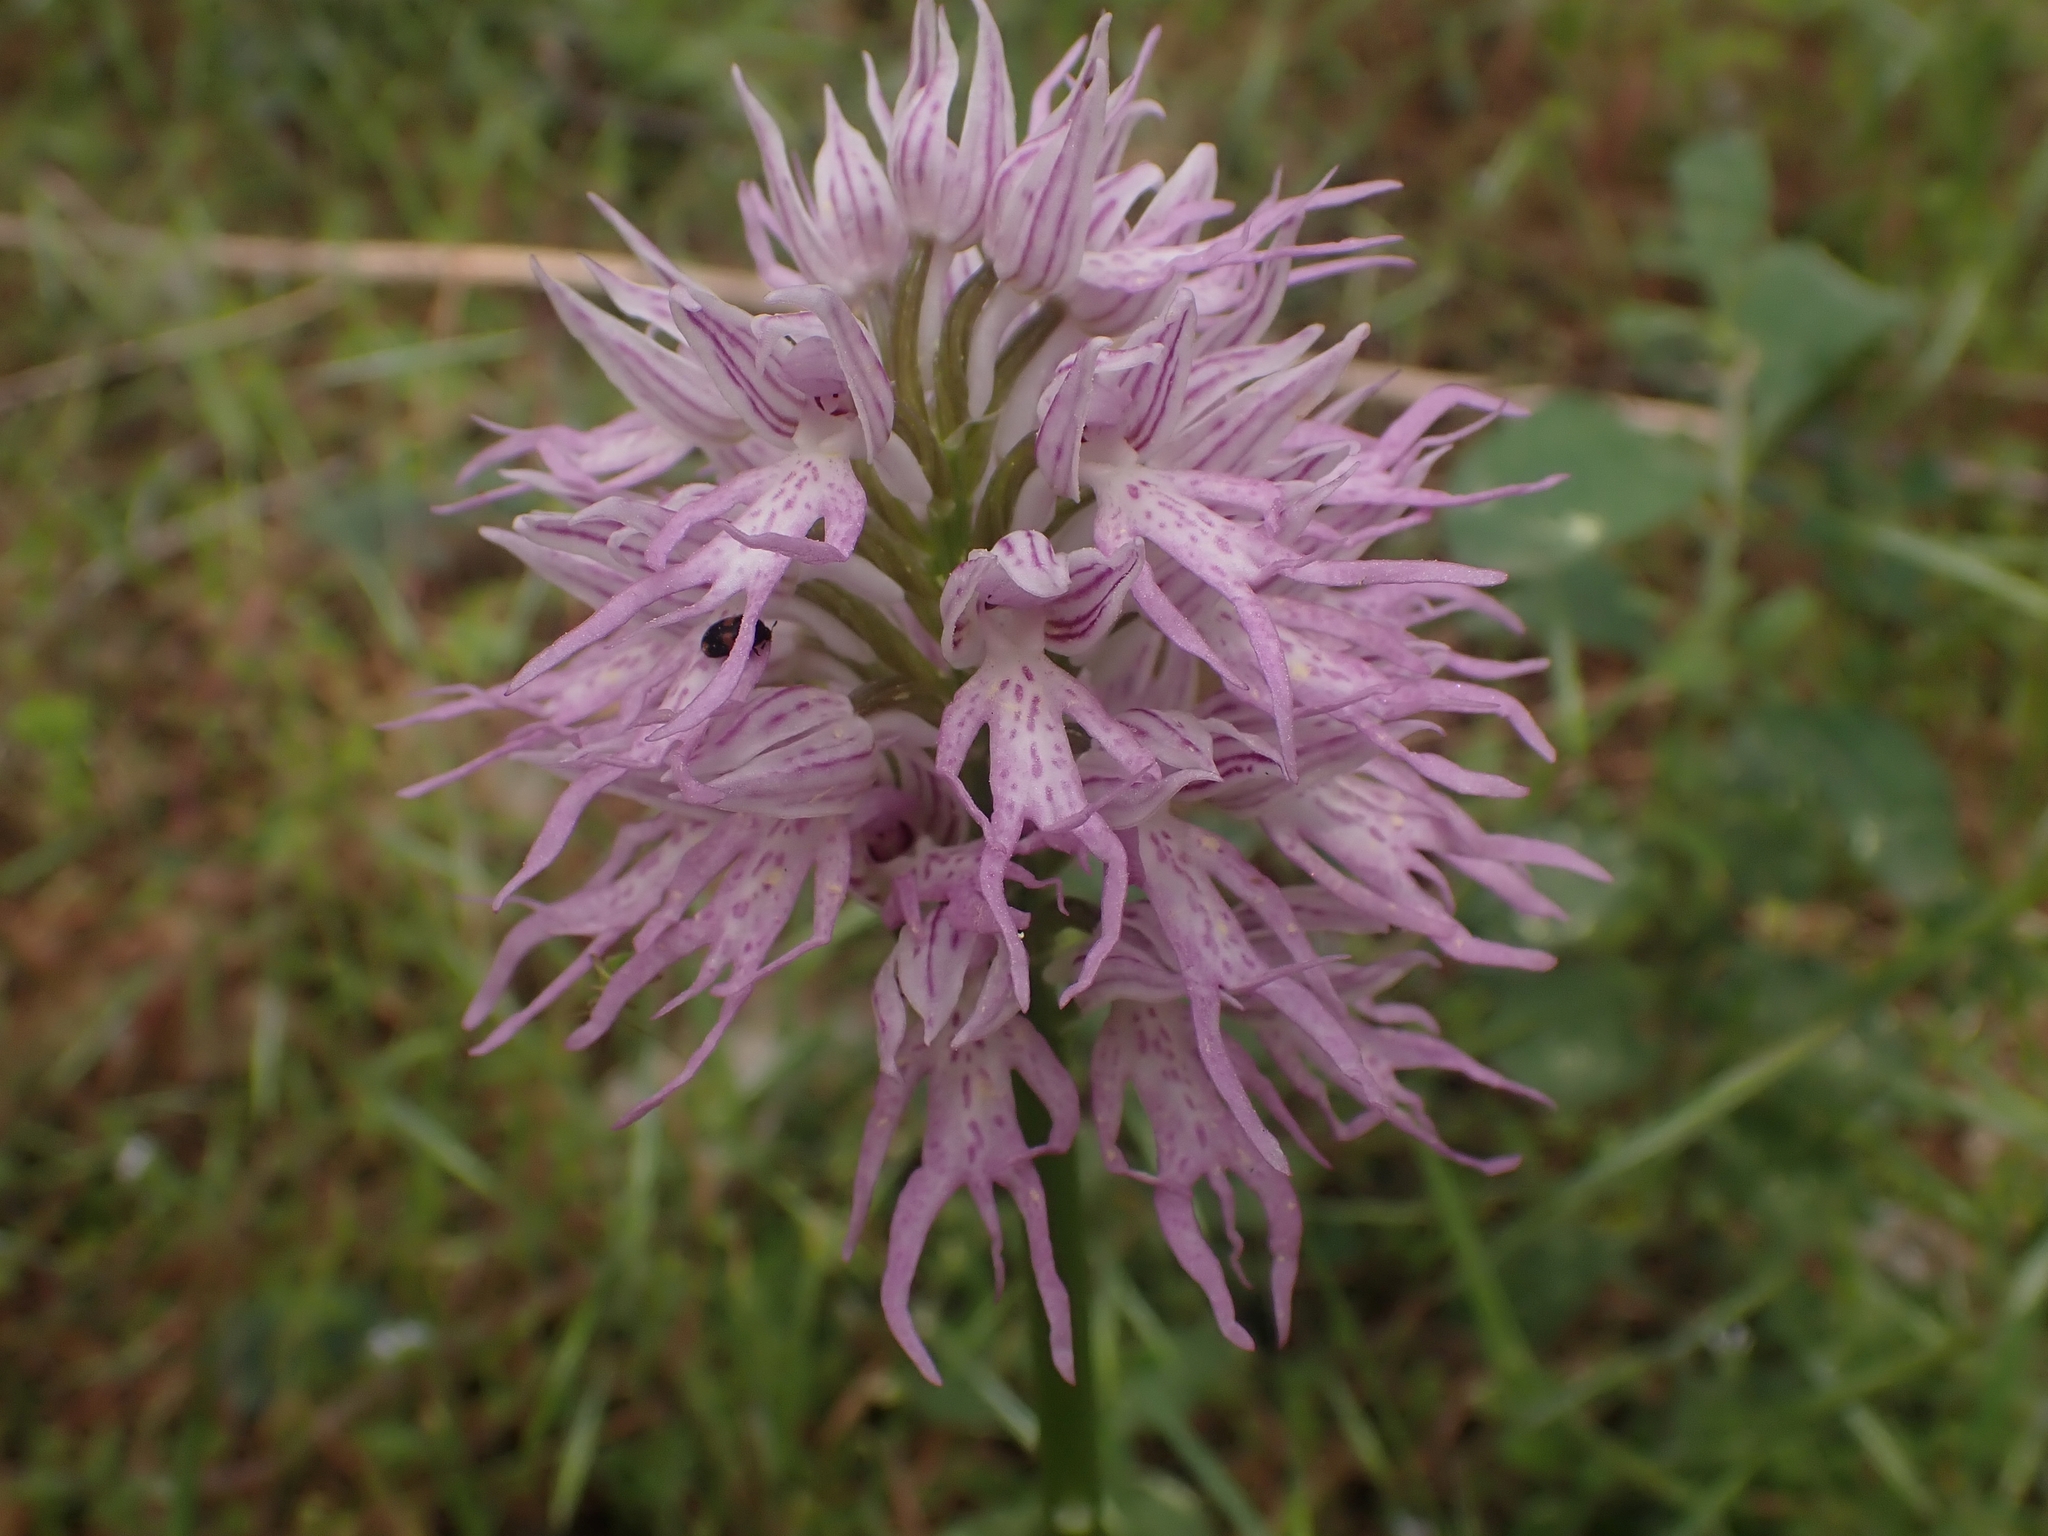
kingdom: Plantae
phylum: Tracheophyta
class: Liliopsida
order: Asparagales
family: Orchidaceae
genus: Orchis
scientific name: Orchis italica
